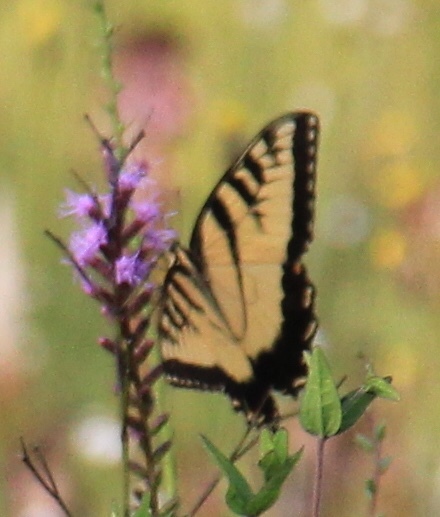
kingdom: Animalia
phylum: Arthropoda
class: Insecta
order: Lepidoptera
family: Papilionidae
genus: Papilio
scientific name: Papilio glaucus
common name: Tiger swallowtail
